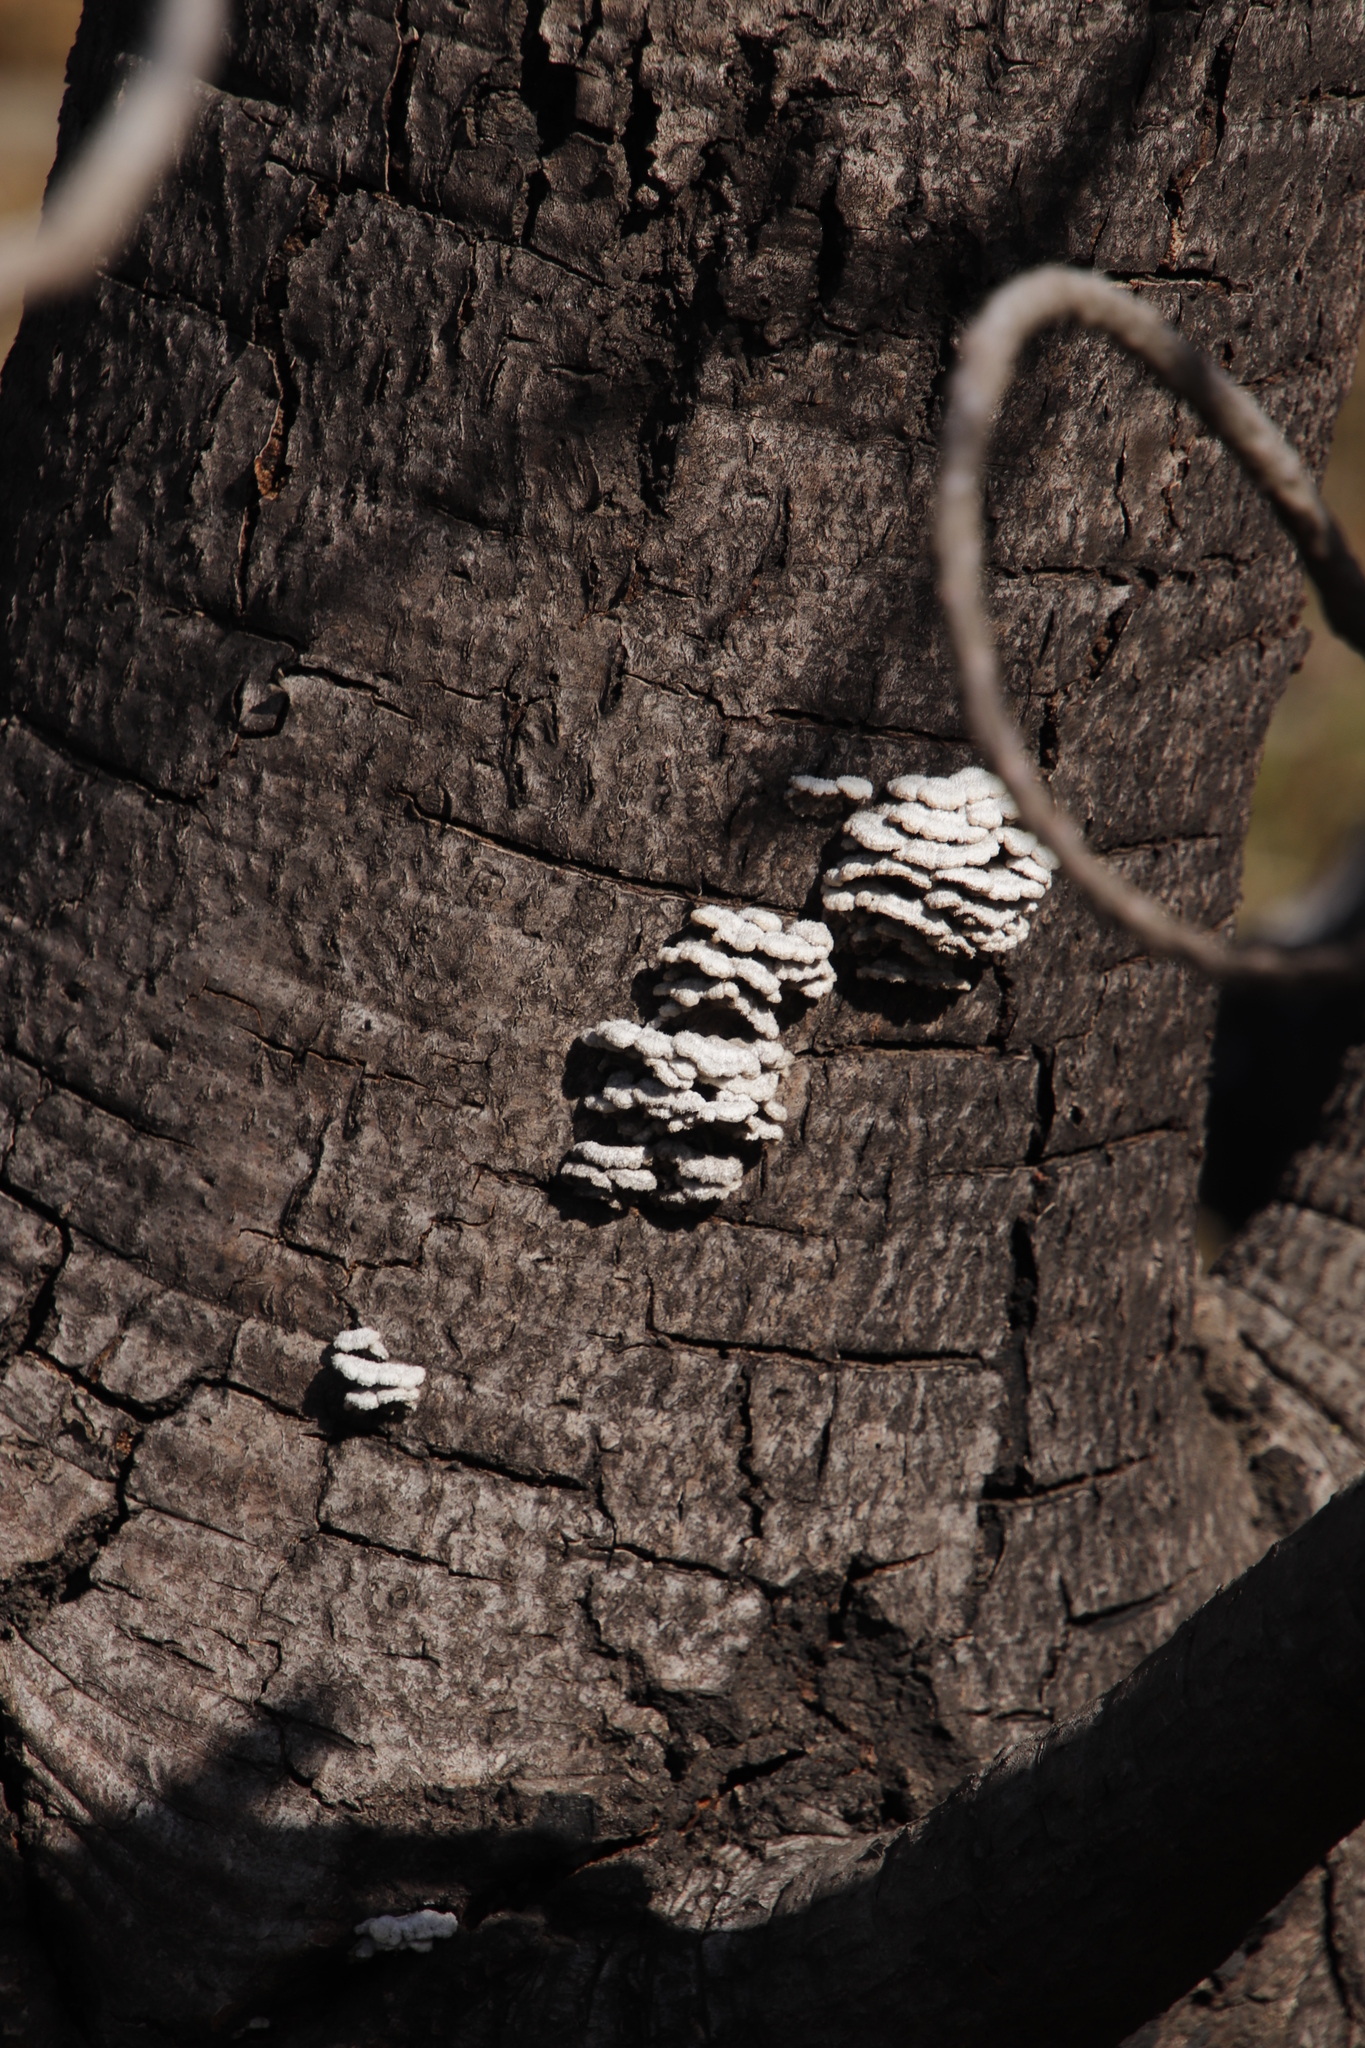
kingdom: Fungi
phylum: Basidiomycota
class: Agaricomycetes
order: Agaricales
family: Schizophyllaceae
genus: Schizophyllum
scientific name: Schizophyllum commune
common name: Common porecrust
